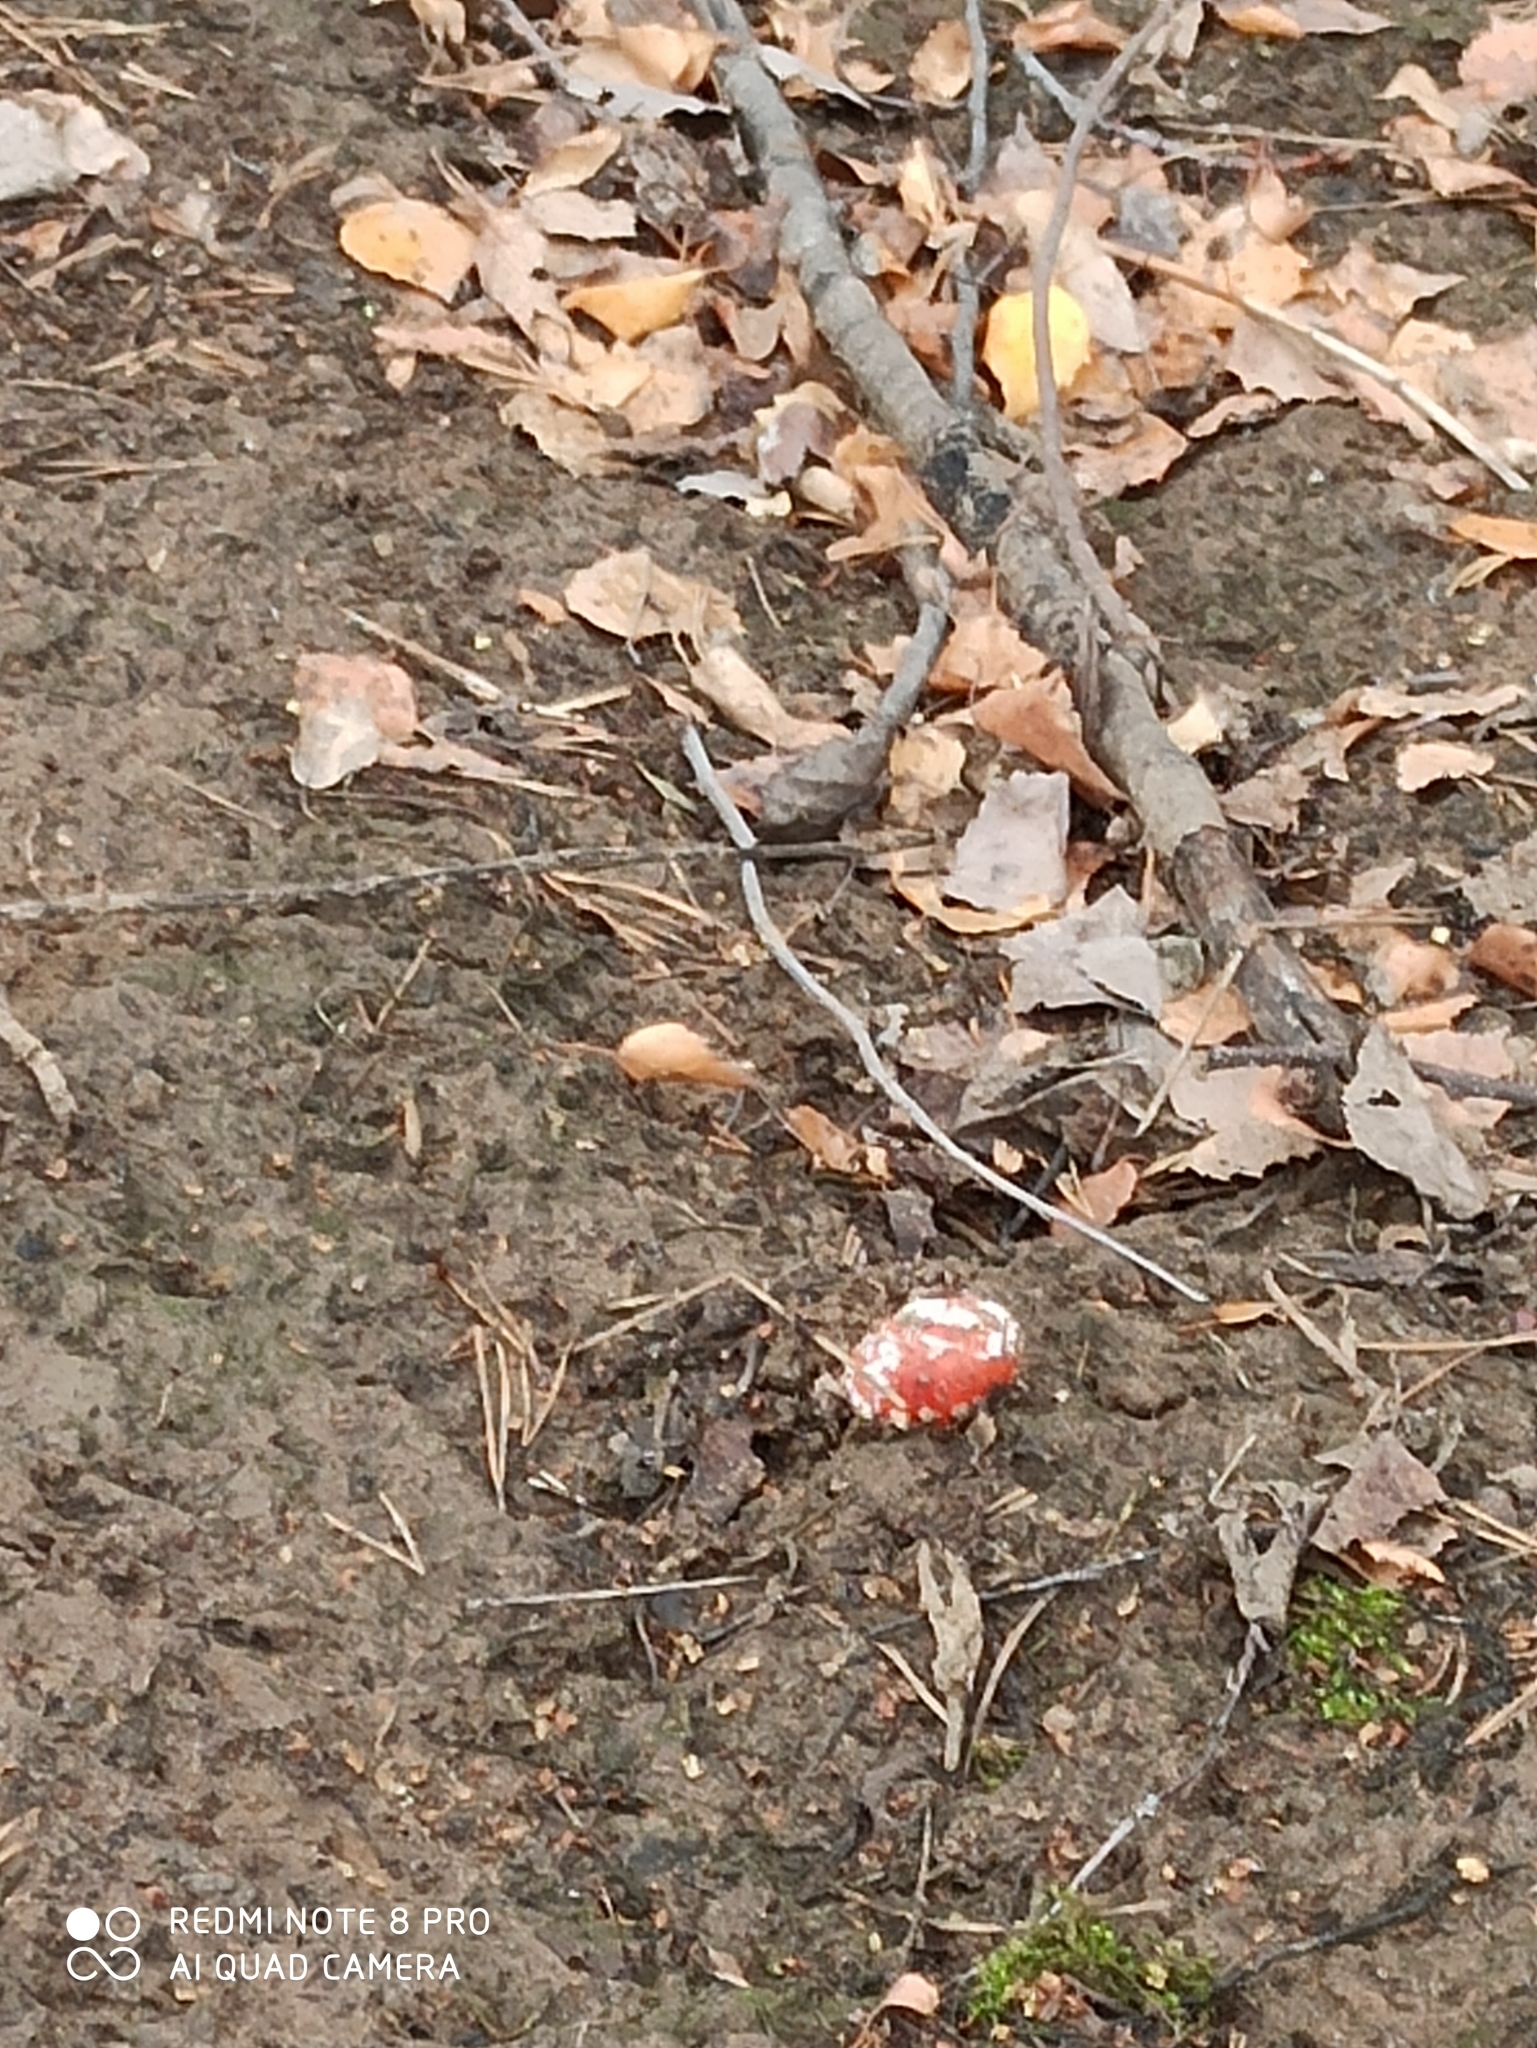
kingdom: Fungi
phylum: Basidiomycota
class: Agaricomycetes
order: Agaricales
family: Amanitaceae
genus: Amanita
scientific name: Amanita muscaria
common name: Fly agaric
